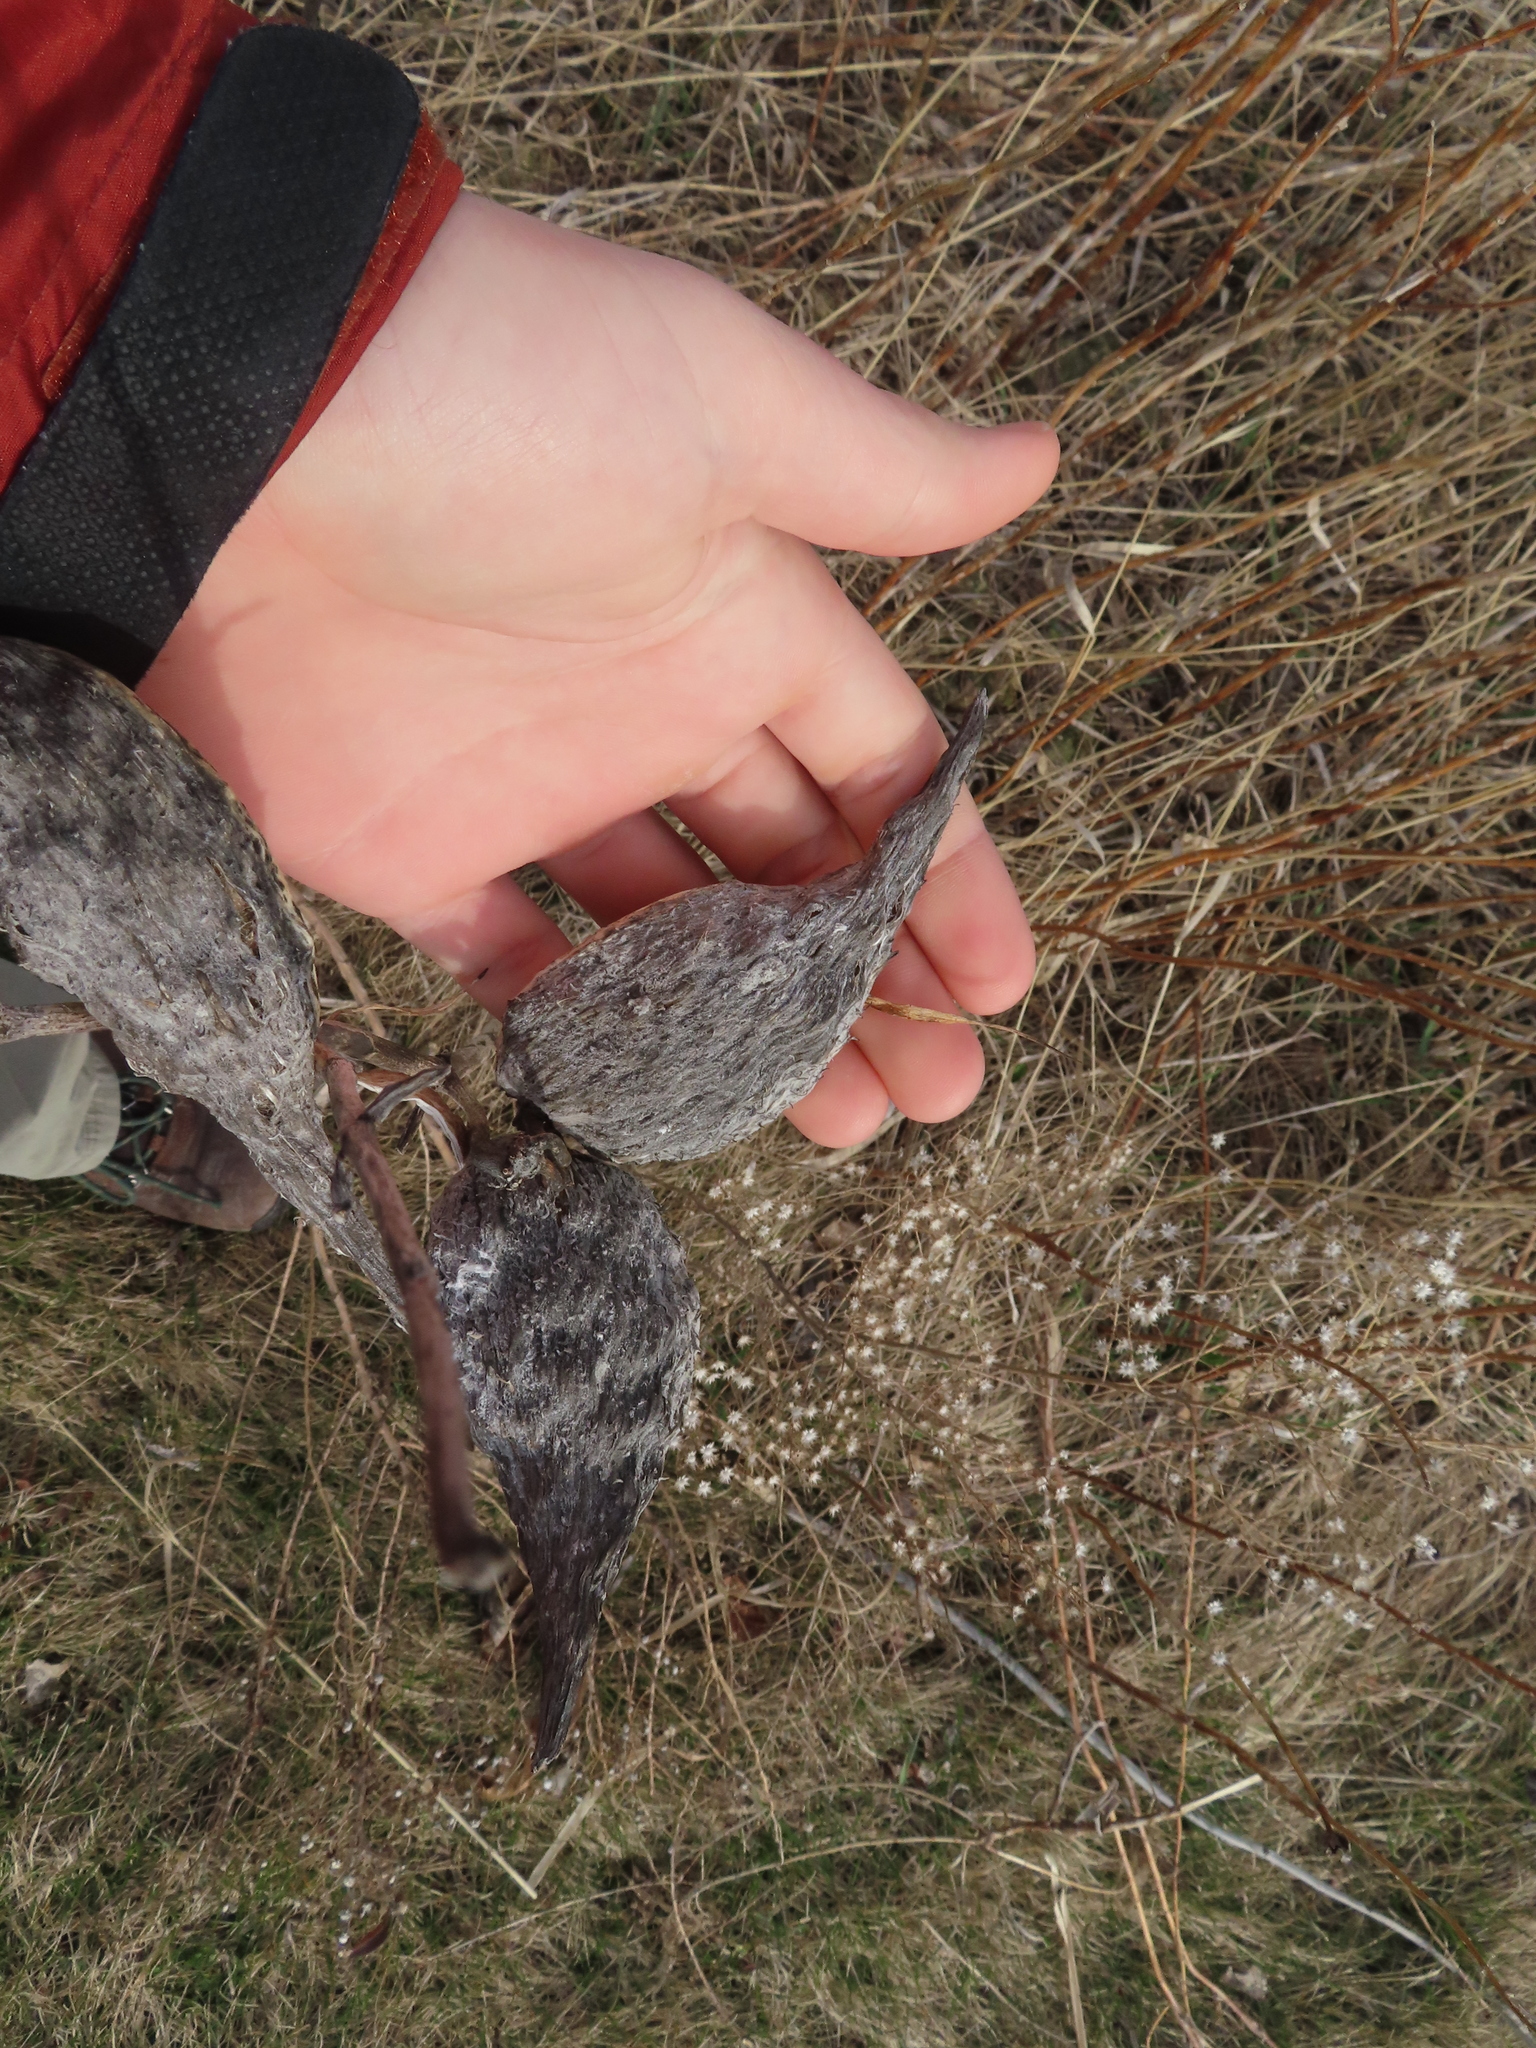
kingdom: Plantae
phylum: Tracheophyta
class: Magnoliopsida
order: Gentianales
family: Apocynaceae
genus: Asclepias
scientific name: Asclepias syriaca
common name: Common milkweed
